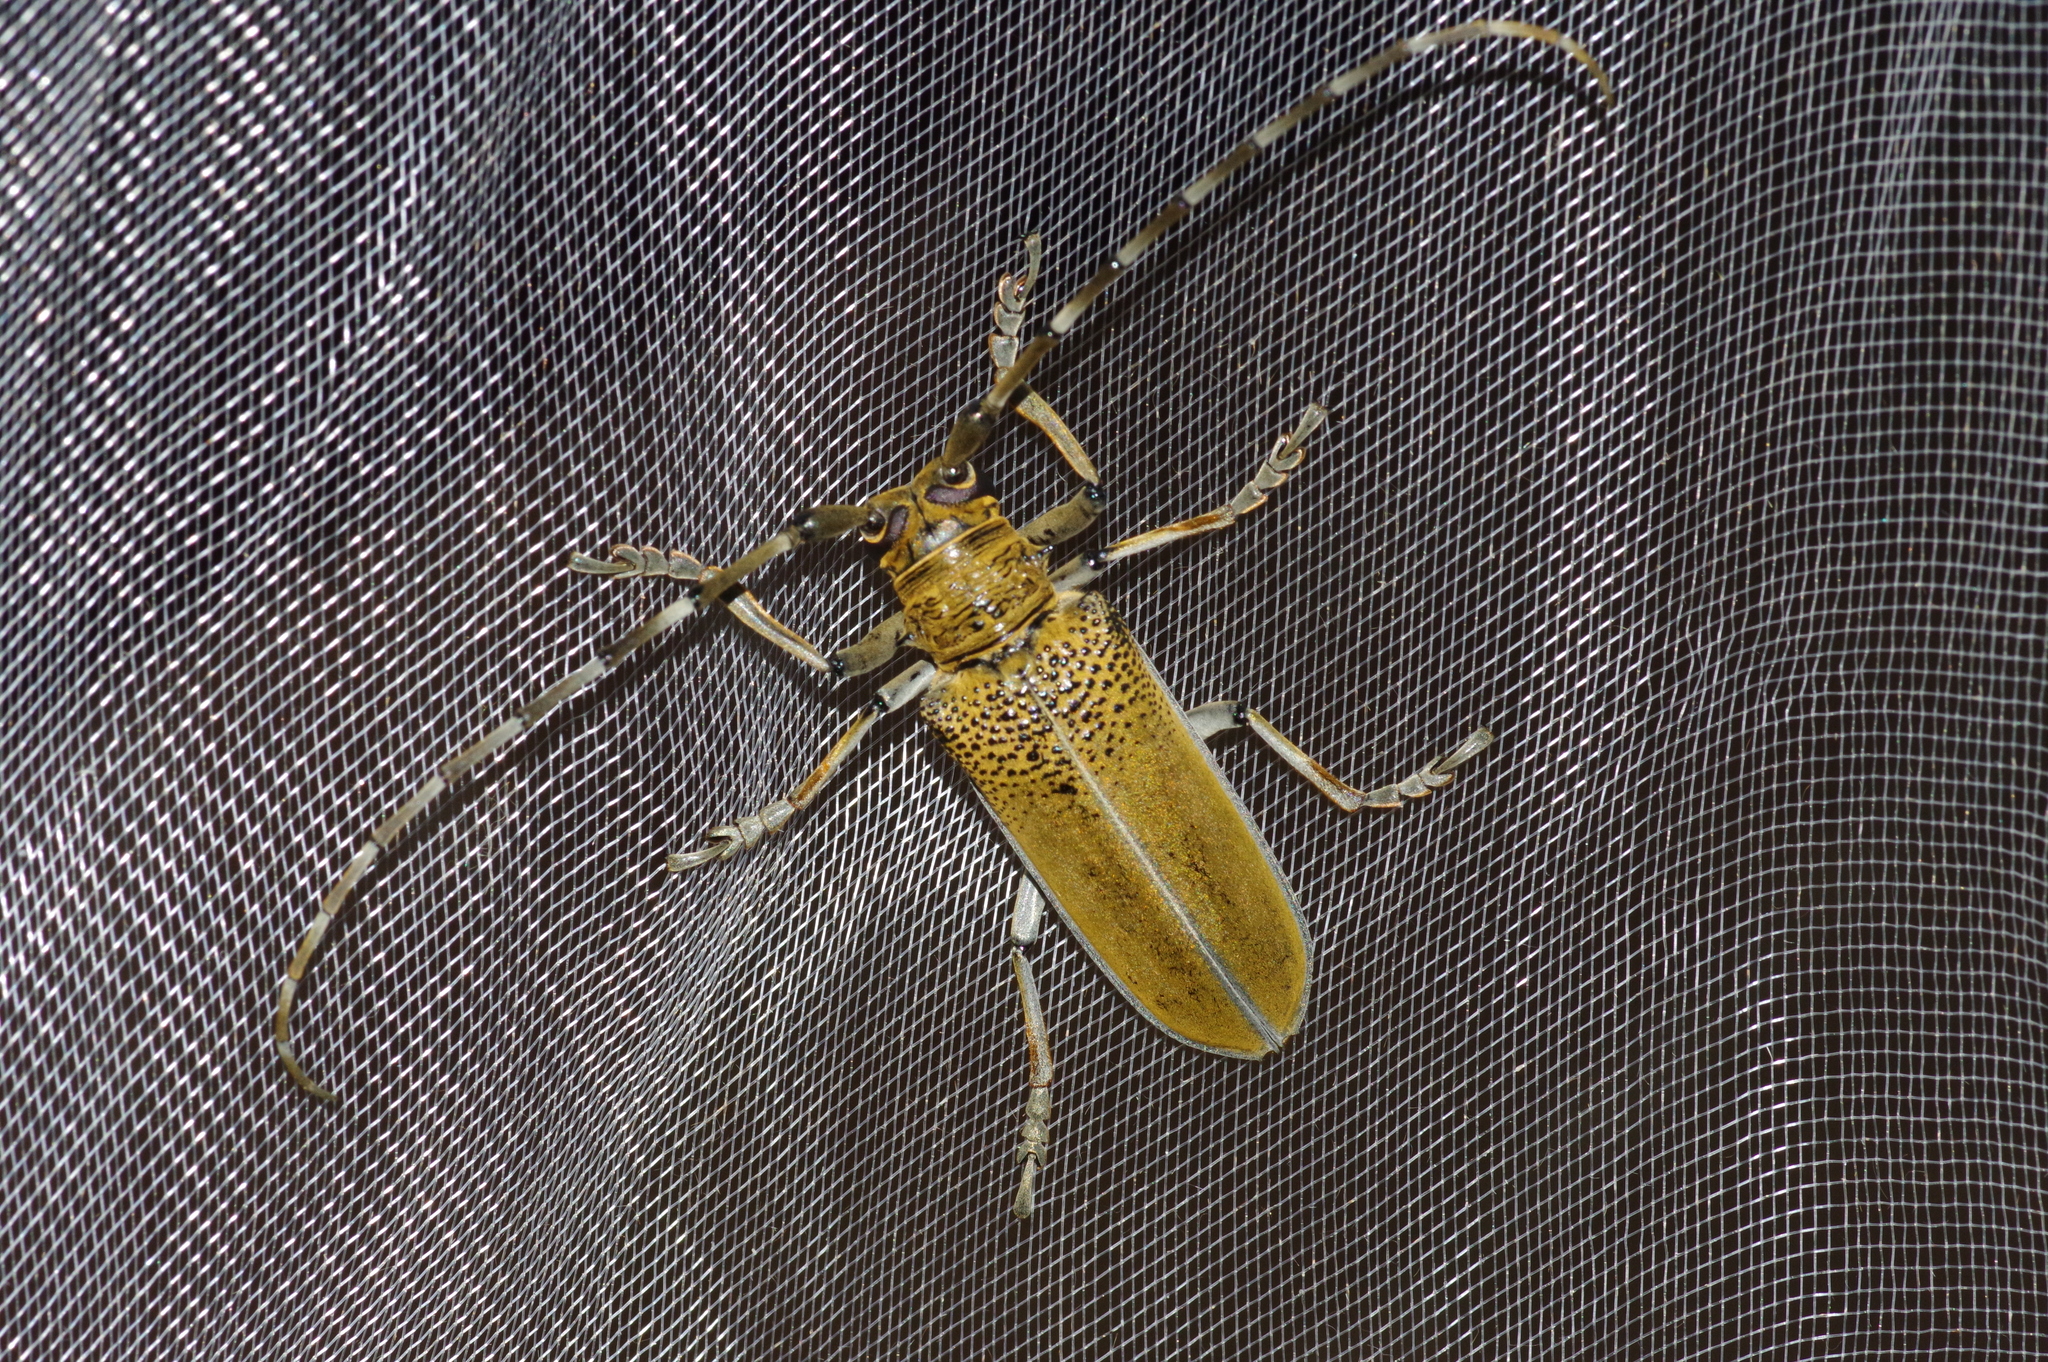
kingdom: Animalia
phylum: Arthropoda
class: Insecta
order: Coleoptera
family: Cerambycidae
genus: Apriona
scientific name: Apriona rugicollis
